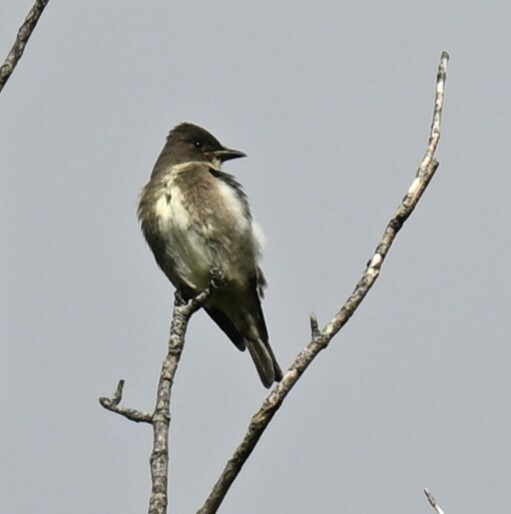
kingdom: Animalia
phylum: Chordata
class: Aves
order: Passeriformes
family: Tyrannidae
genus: Contopus
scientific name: Contopus cooperi
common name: Olive-sided flycatcher
